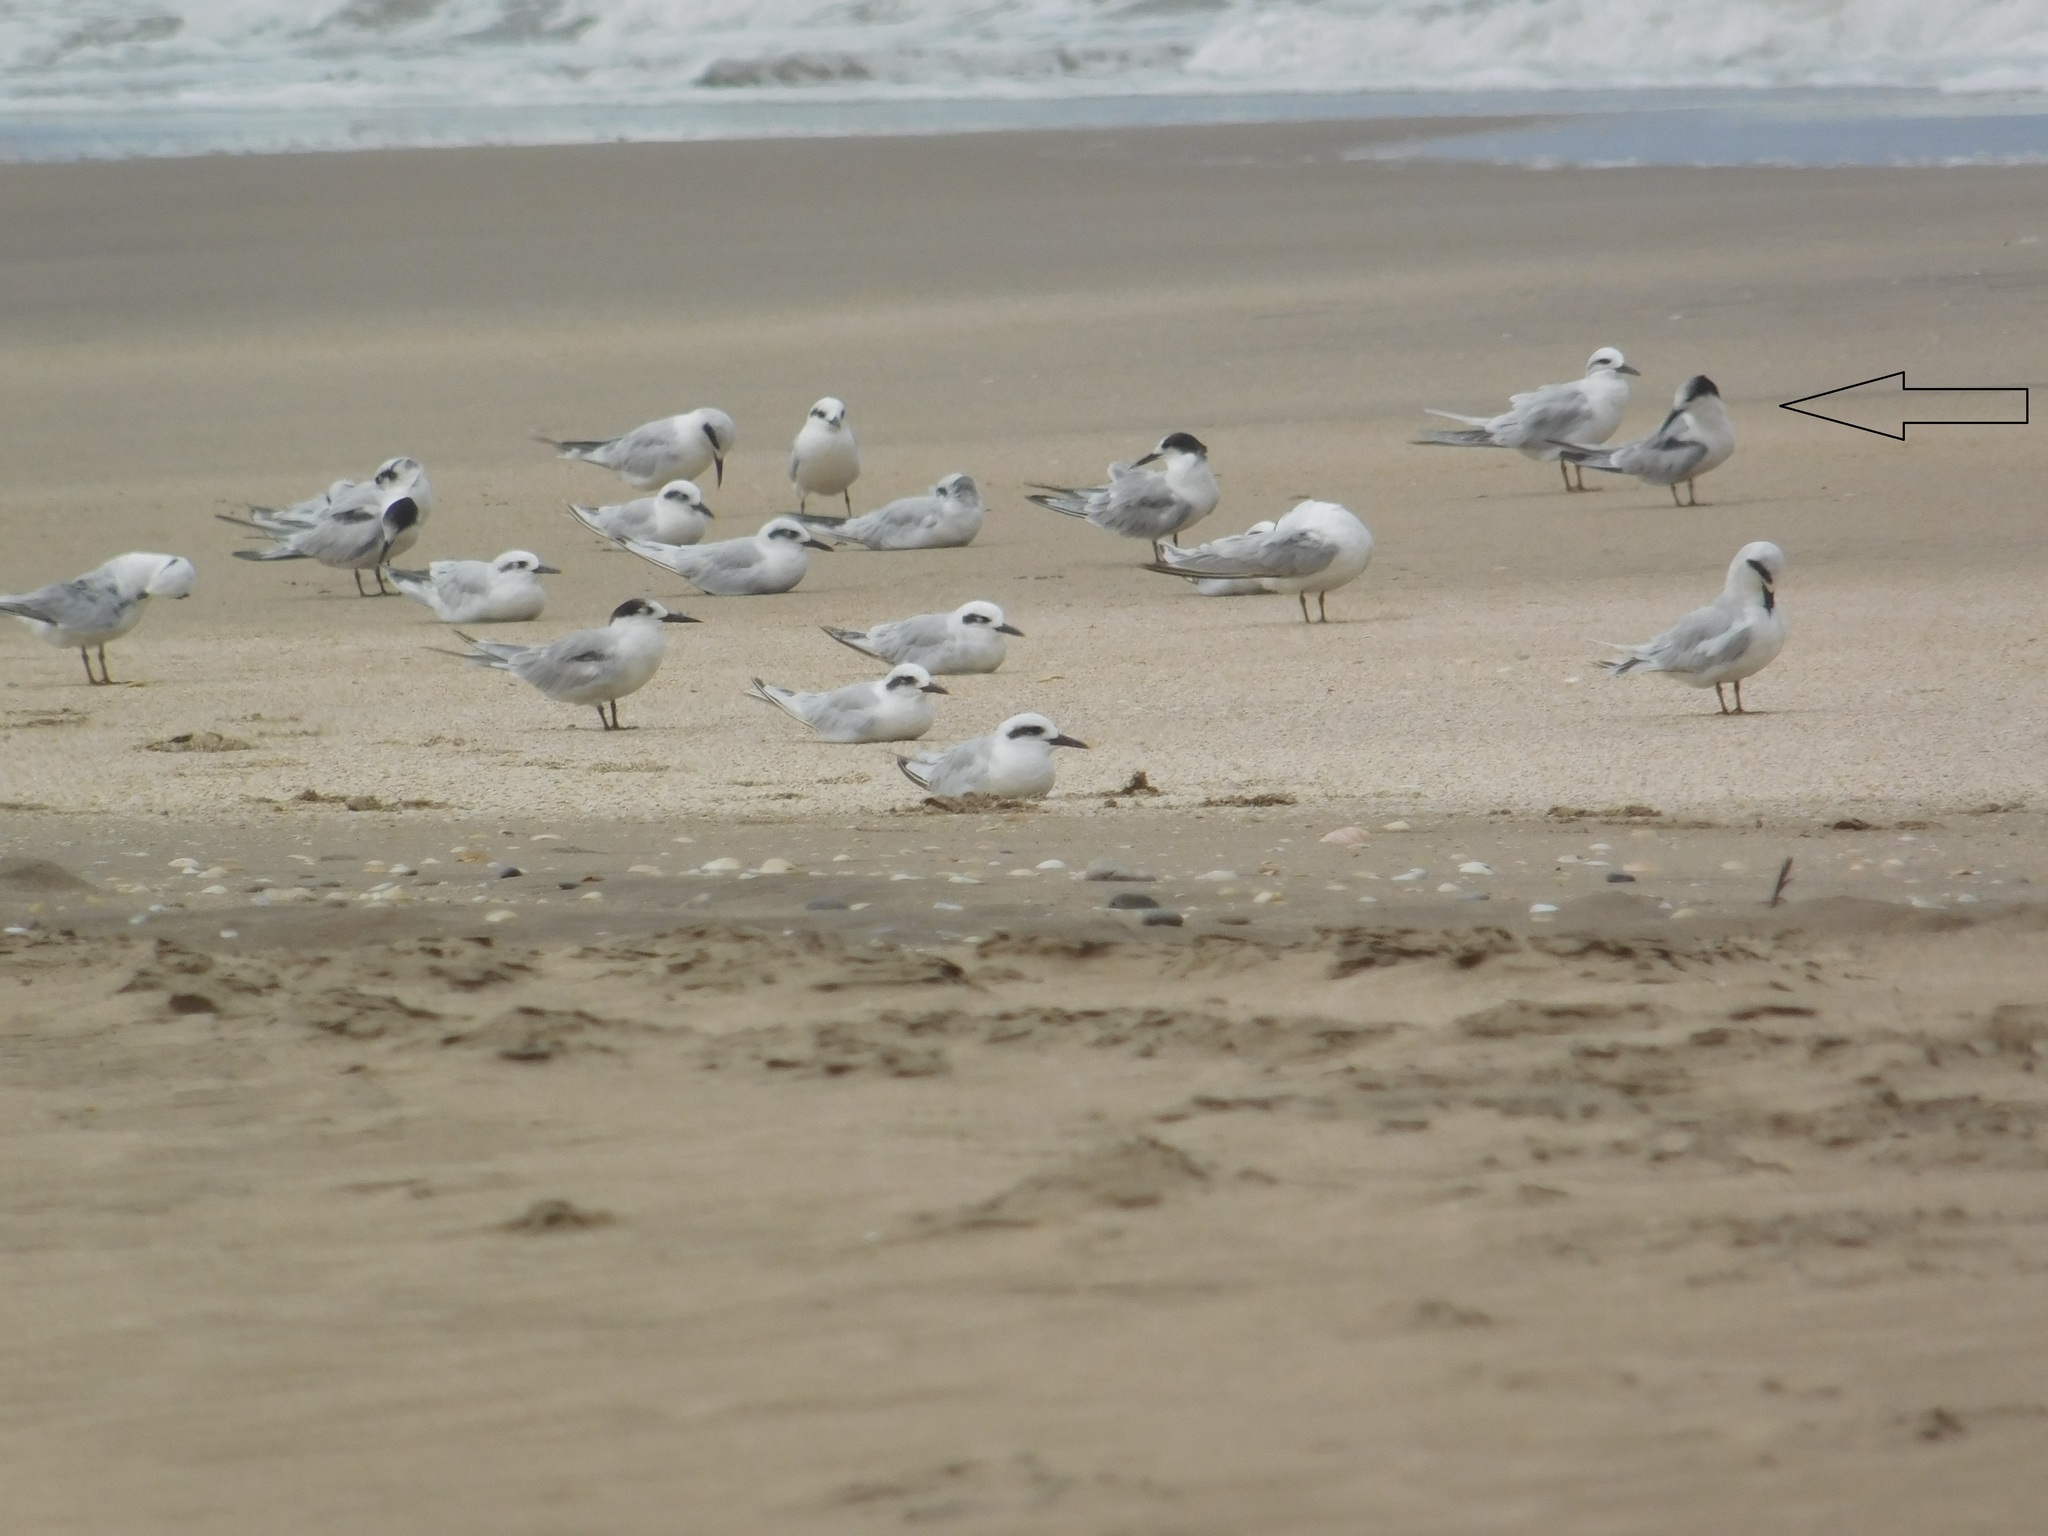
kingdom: Animalia
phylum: Chordata
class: Aves
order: Charadriiformes
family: Laridae
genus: Sterna
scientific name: Sterna hirundo
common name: Common tern
